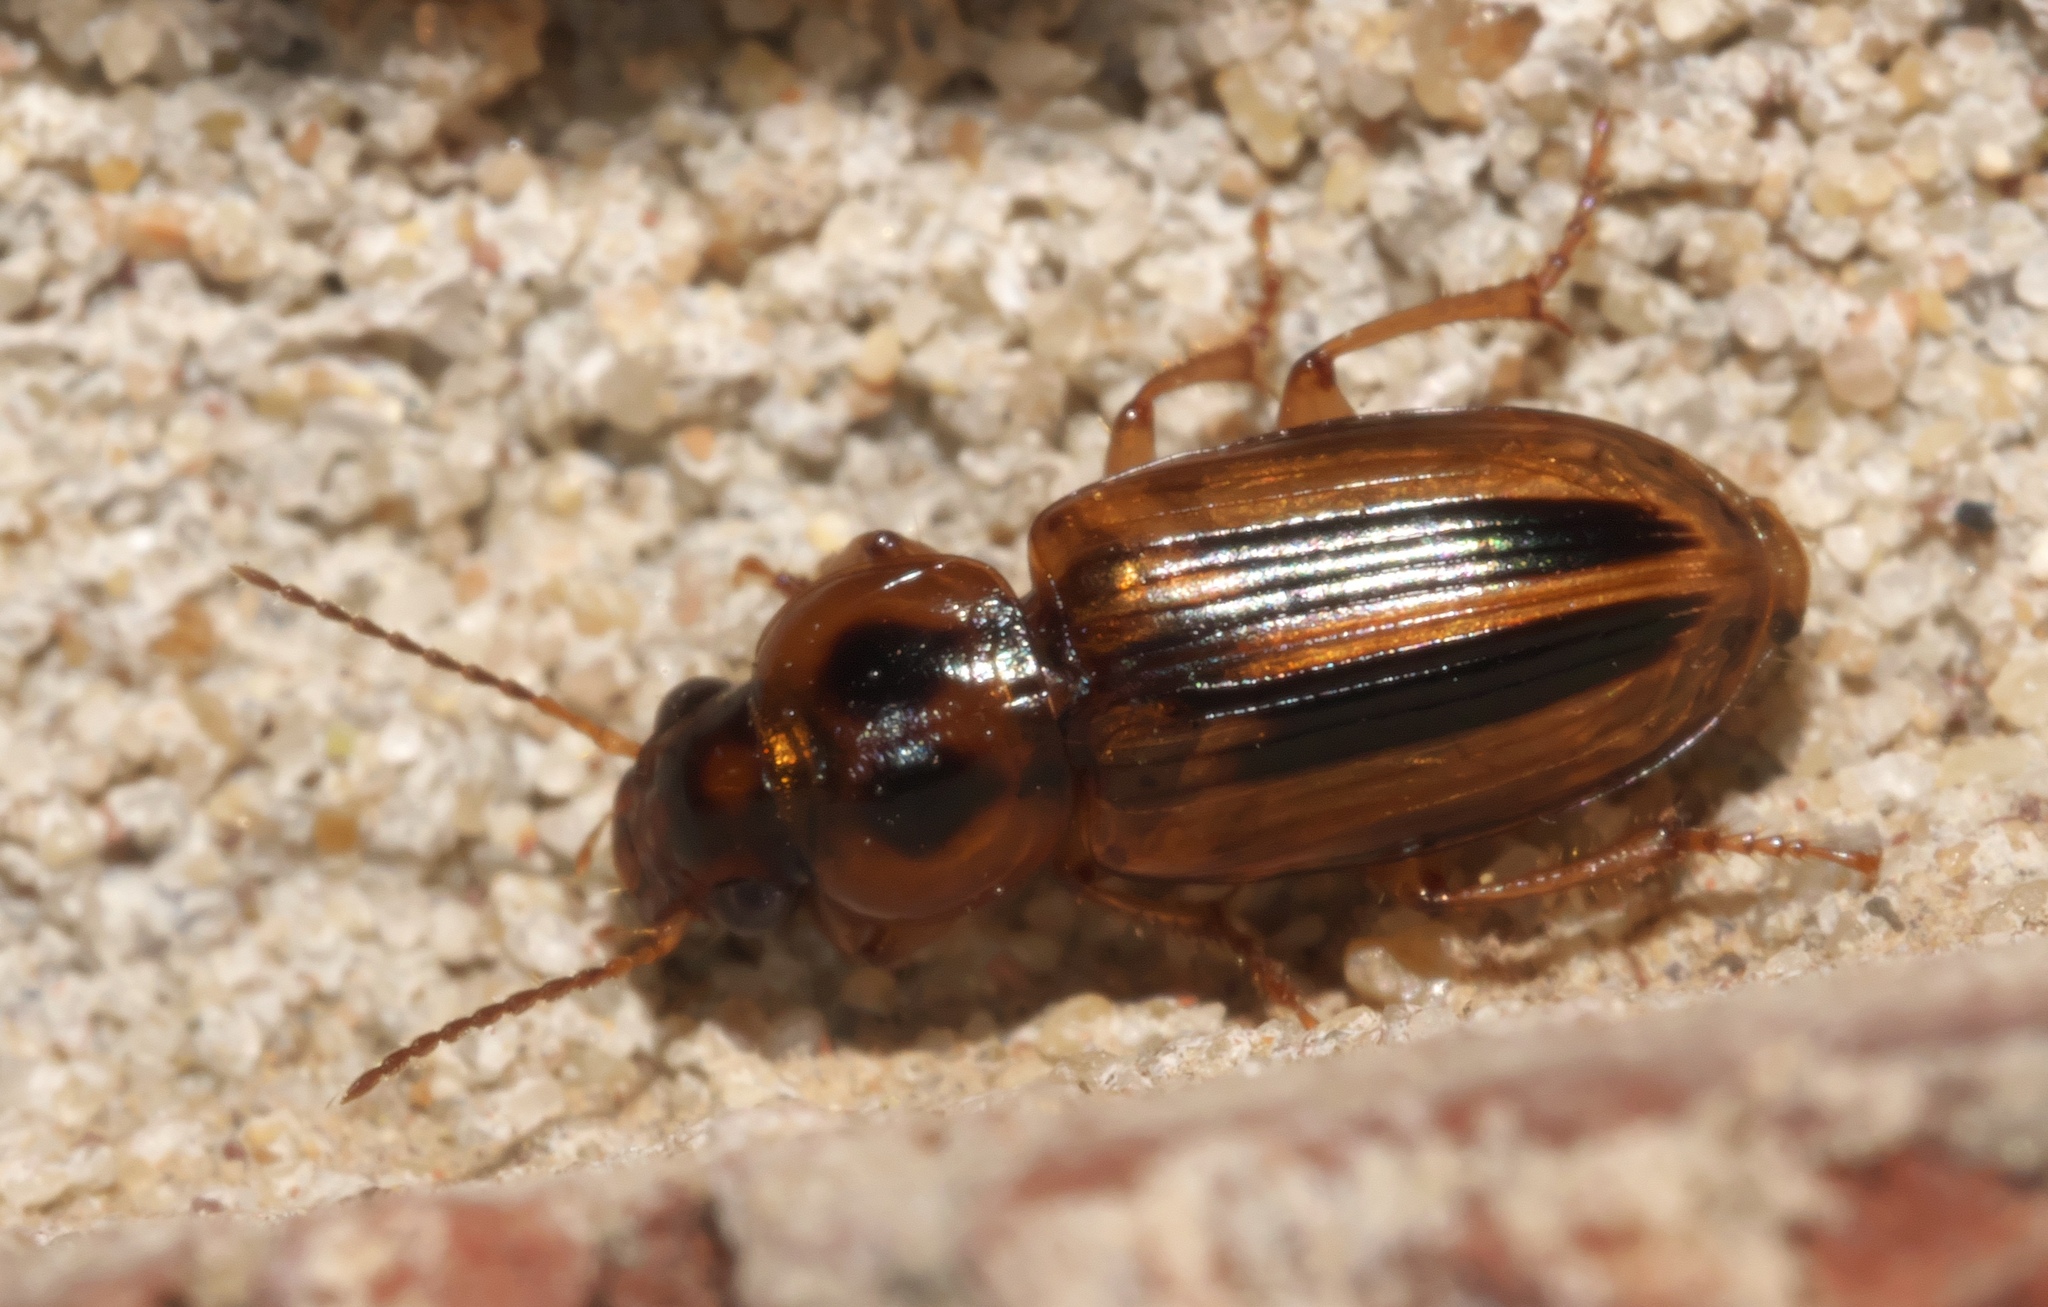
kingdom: Animalia
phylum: Arthropoda
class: Insecta
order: Coleoptera
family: Carabidae
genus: Stenolophus
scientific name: Stenolophus binotatus
